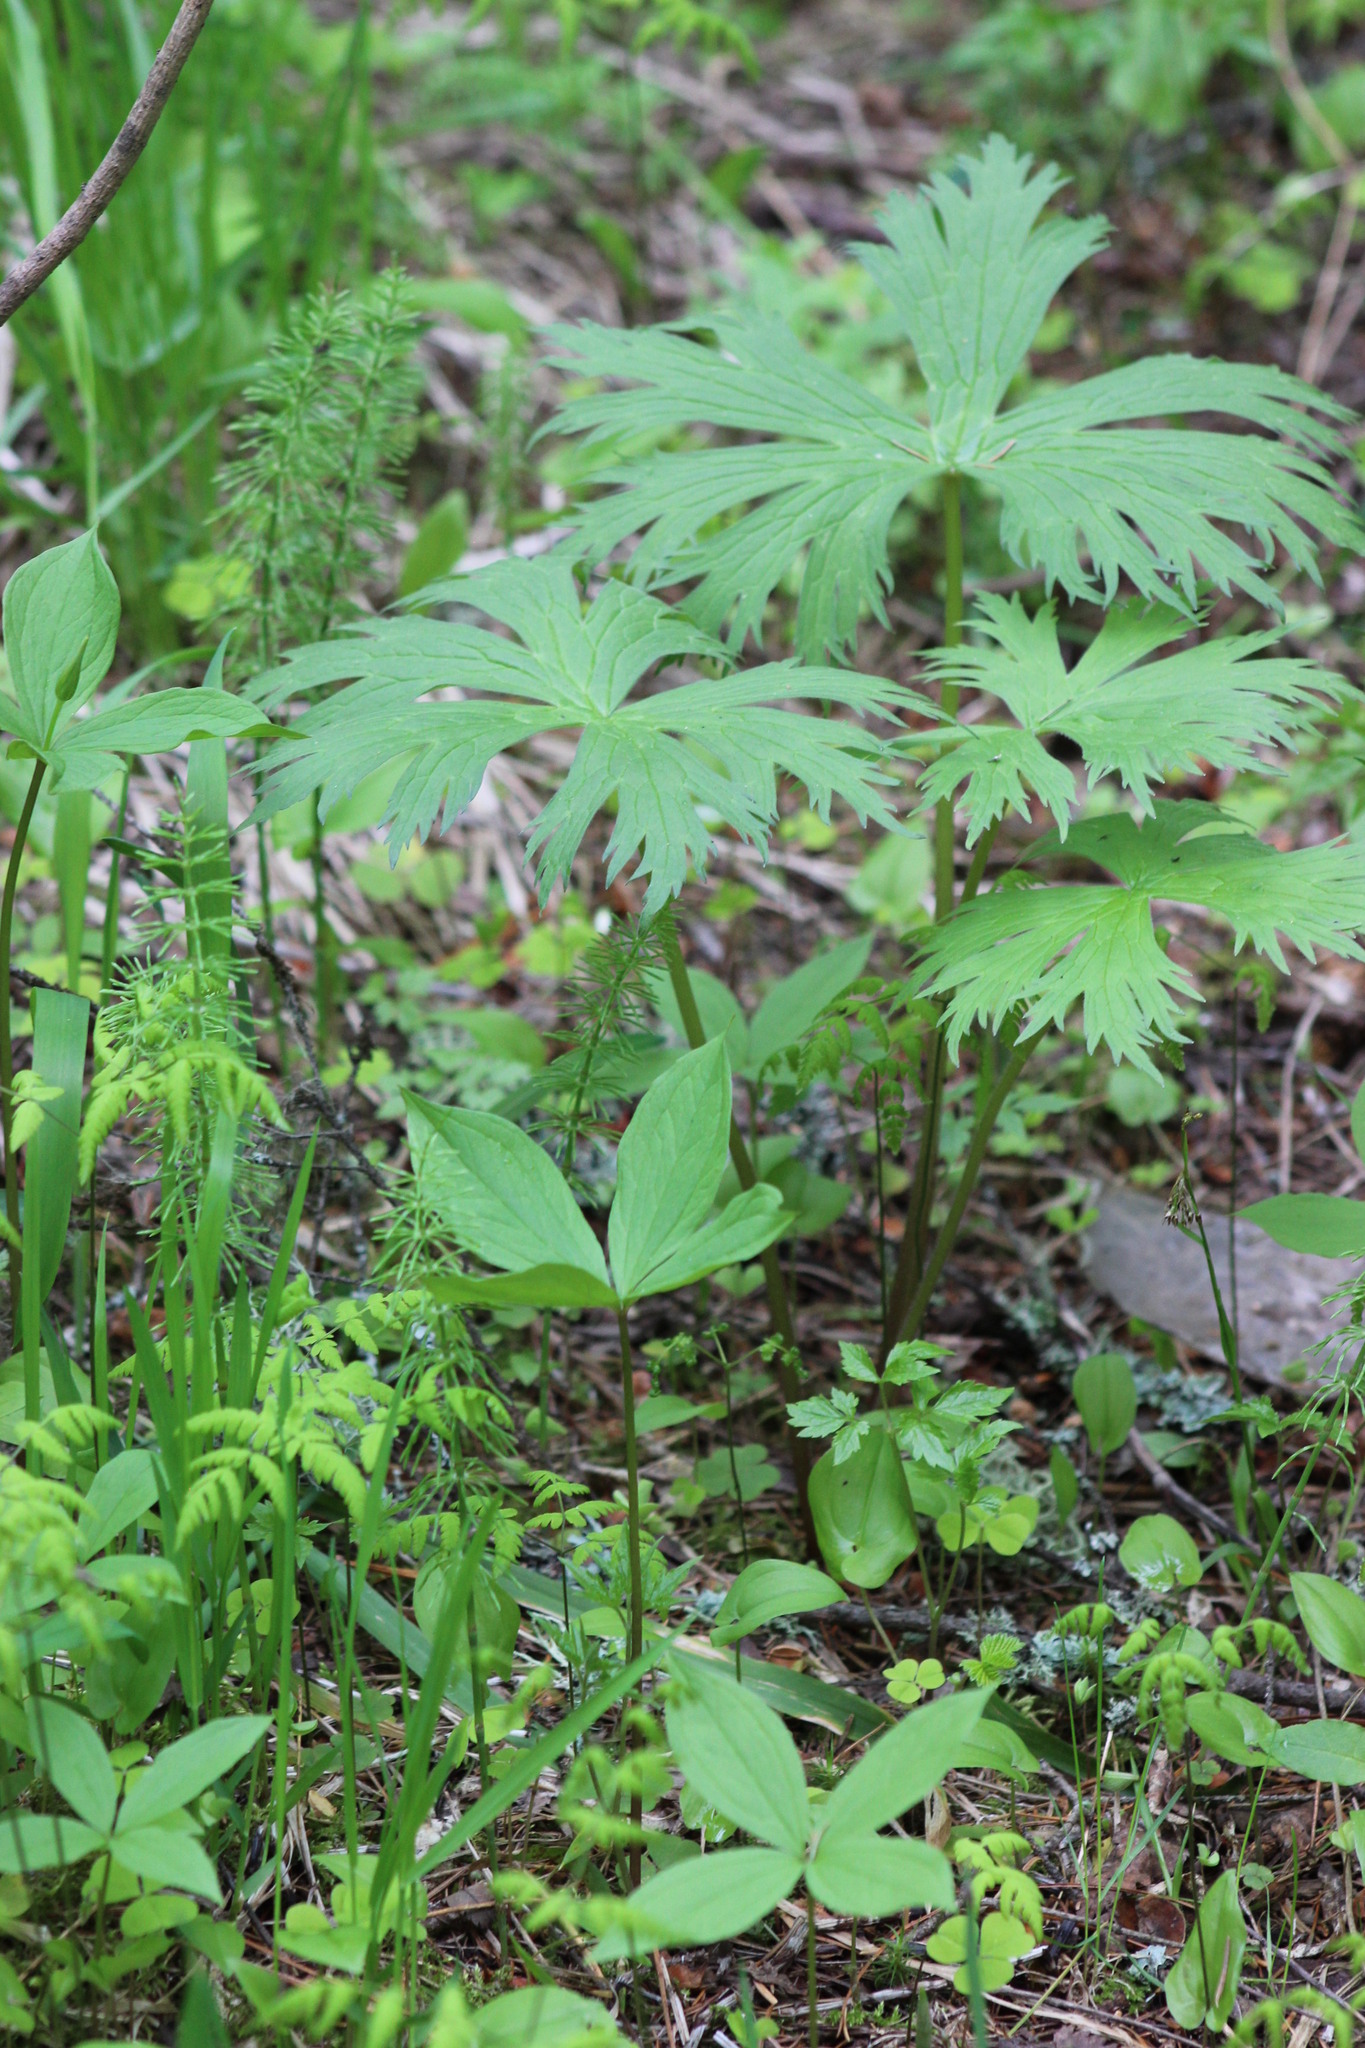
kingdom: Plantae
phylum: Tracheophyta
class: Magnoliopsida
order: Ranunculales
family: Ranunculaceae
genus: Aconitum
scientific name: Aconitum septentrionale
